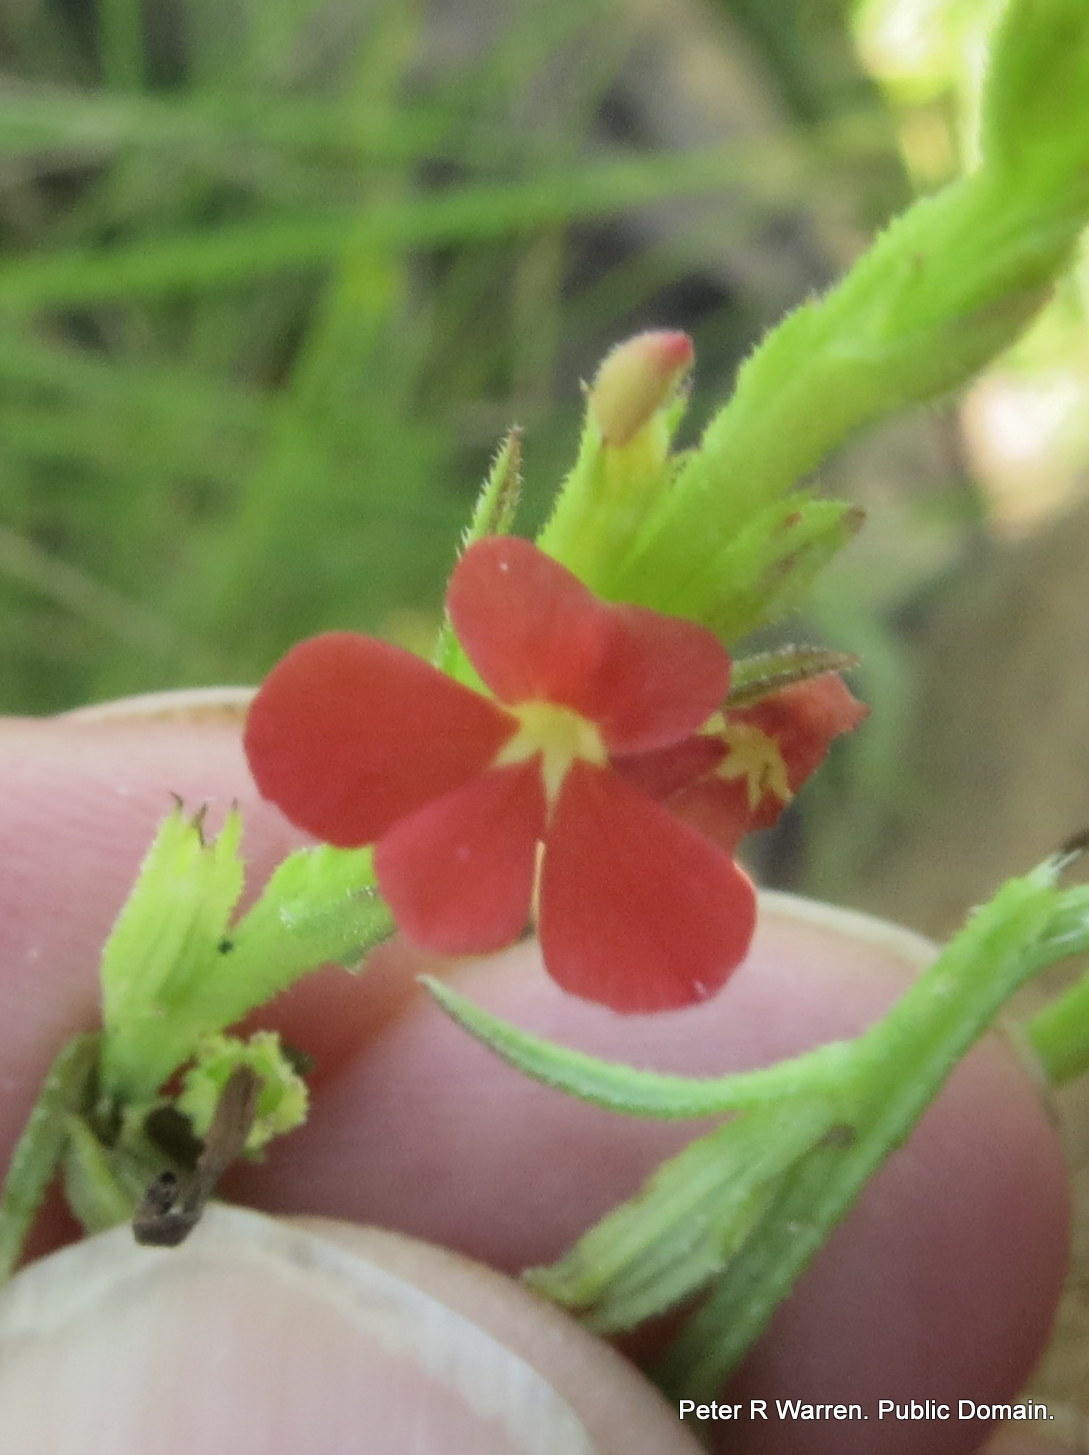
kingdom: Plantae
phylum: Tracheophyta
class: Magnoliopsida
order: Lamiales
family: Orobanchaceae
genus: Striga
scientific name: Striga asiatica
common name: Asiatic witchweed
